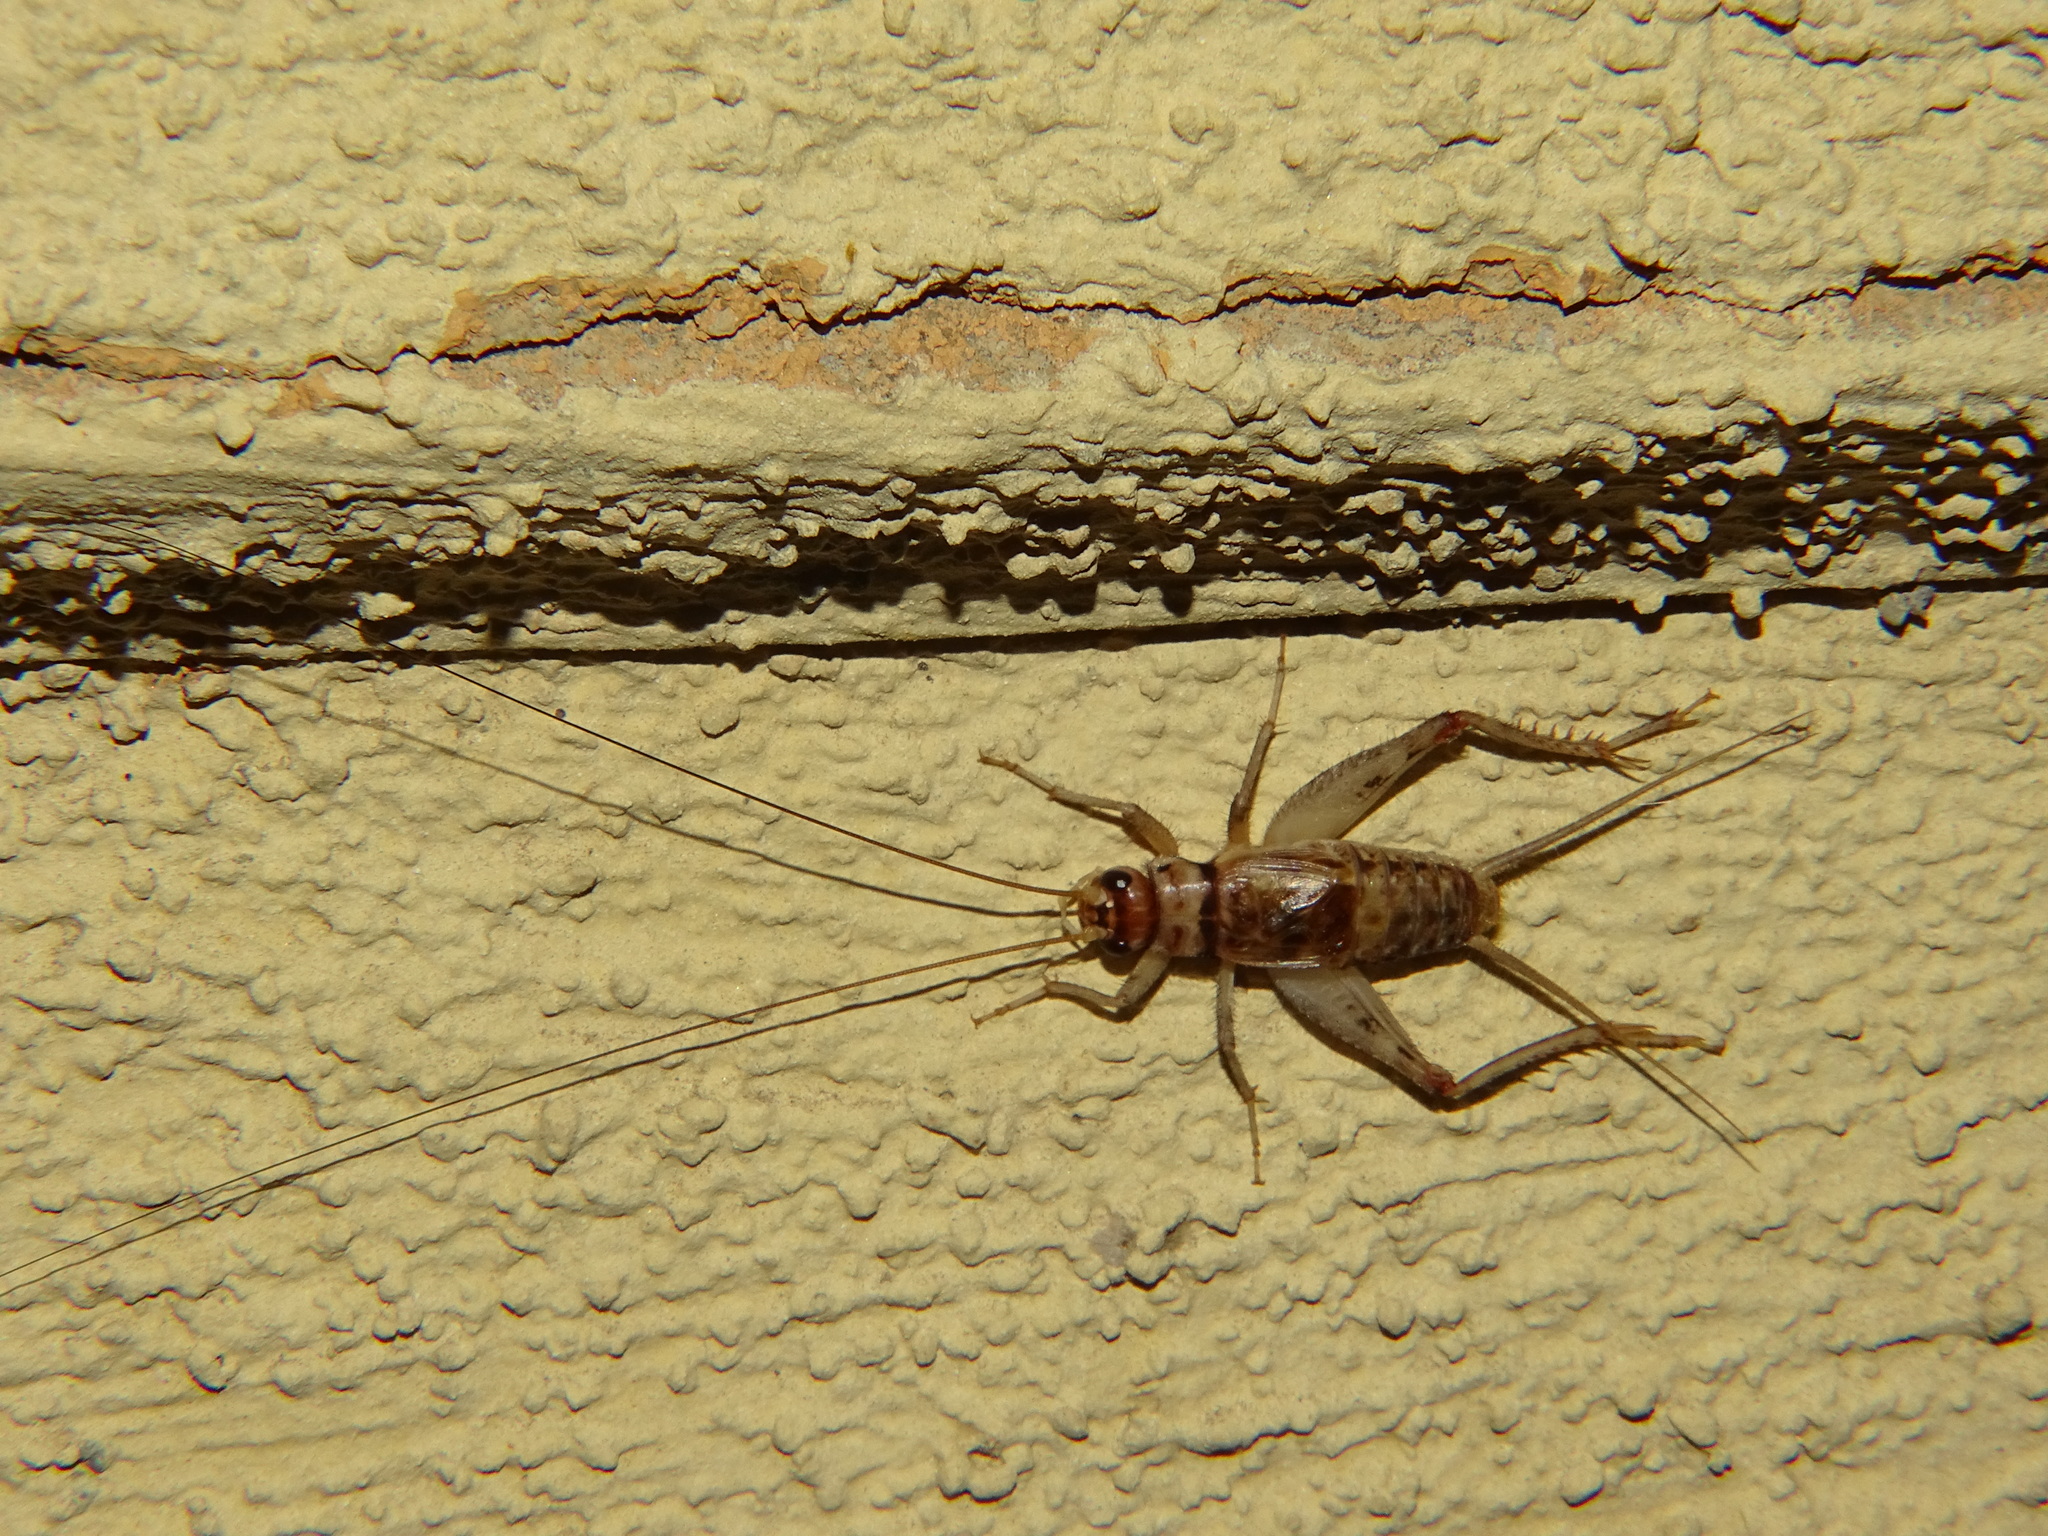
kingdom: Animalia
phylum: Arthropoda
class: Insecta
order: Orthoptera
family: Gryllidae
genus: Gryllodes
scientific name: Gryllodes sigillatus
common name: Tropical house cricket
